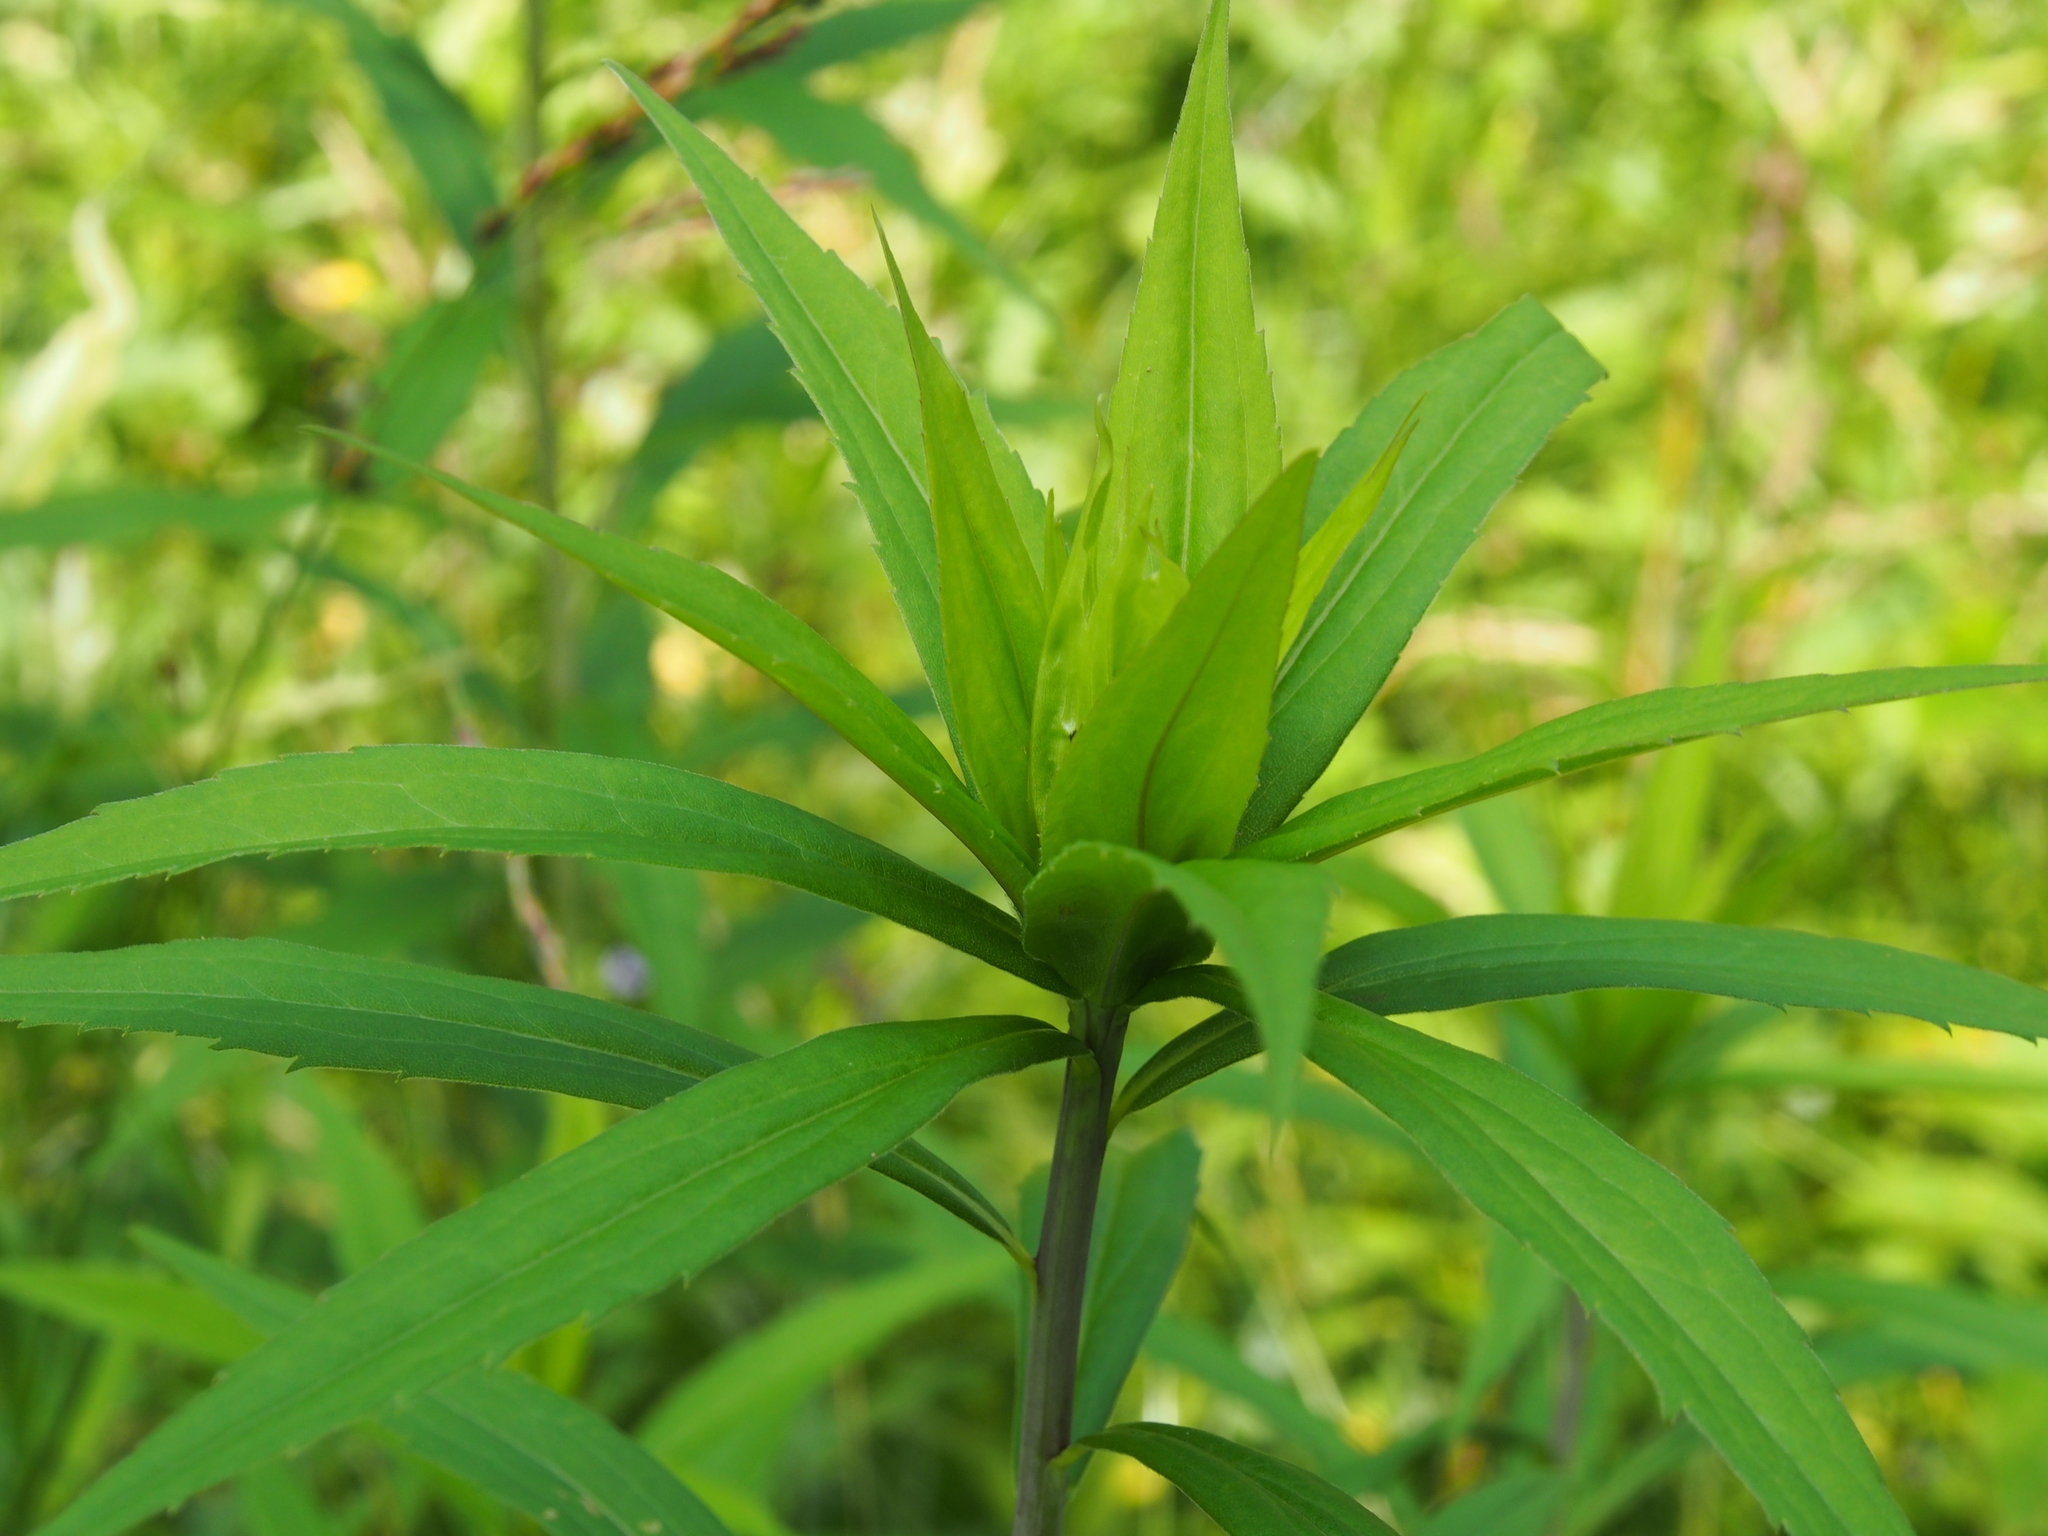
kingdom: Animalia
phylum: Arthropoda
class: Insecta
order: Diptera
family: Cecidomyiidae
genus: Rhopalomyia
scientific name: Rhopalomyia capitata
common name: Giant goldenrod bunch gall midge
